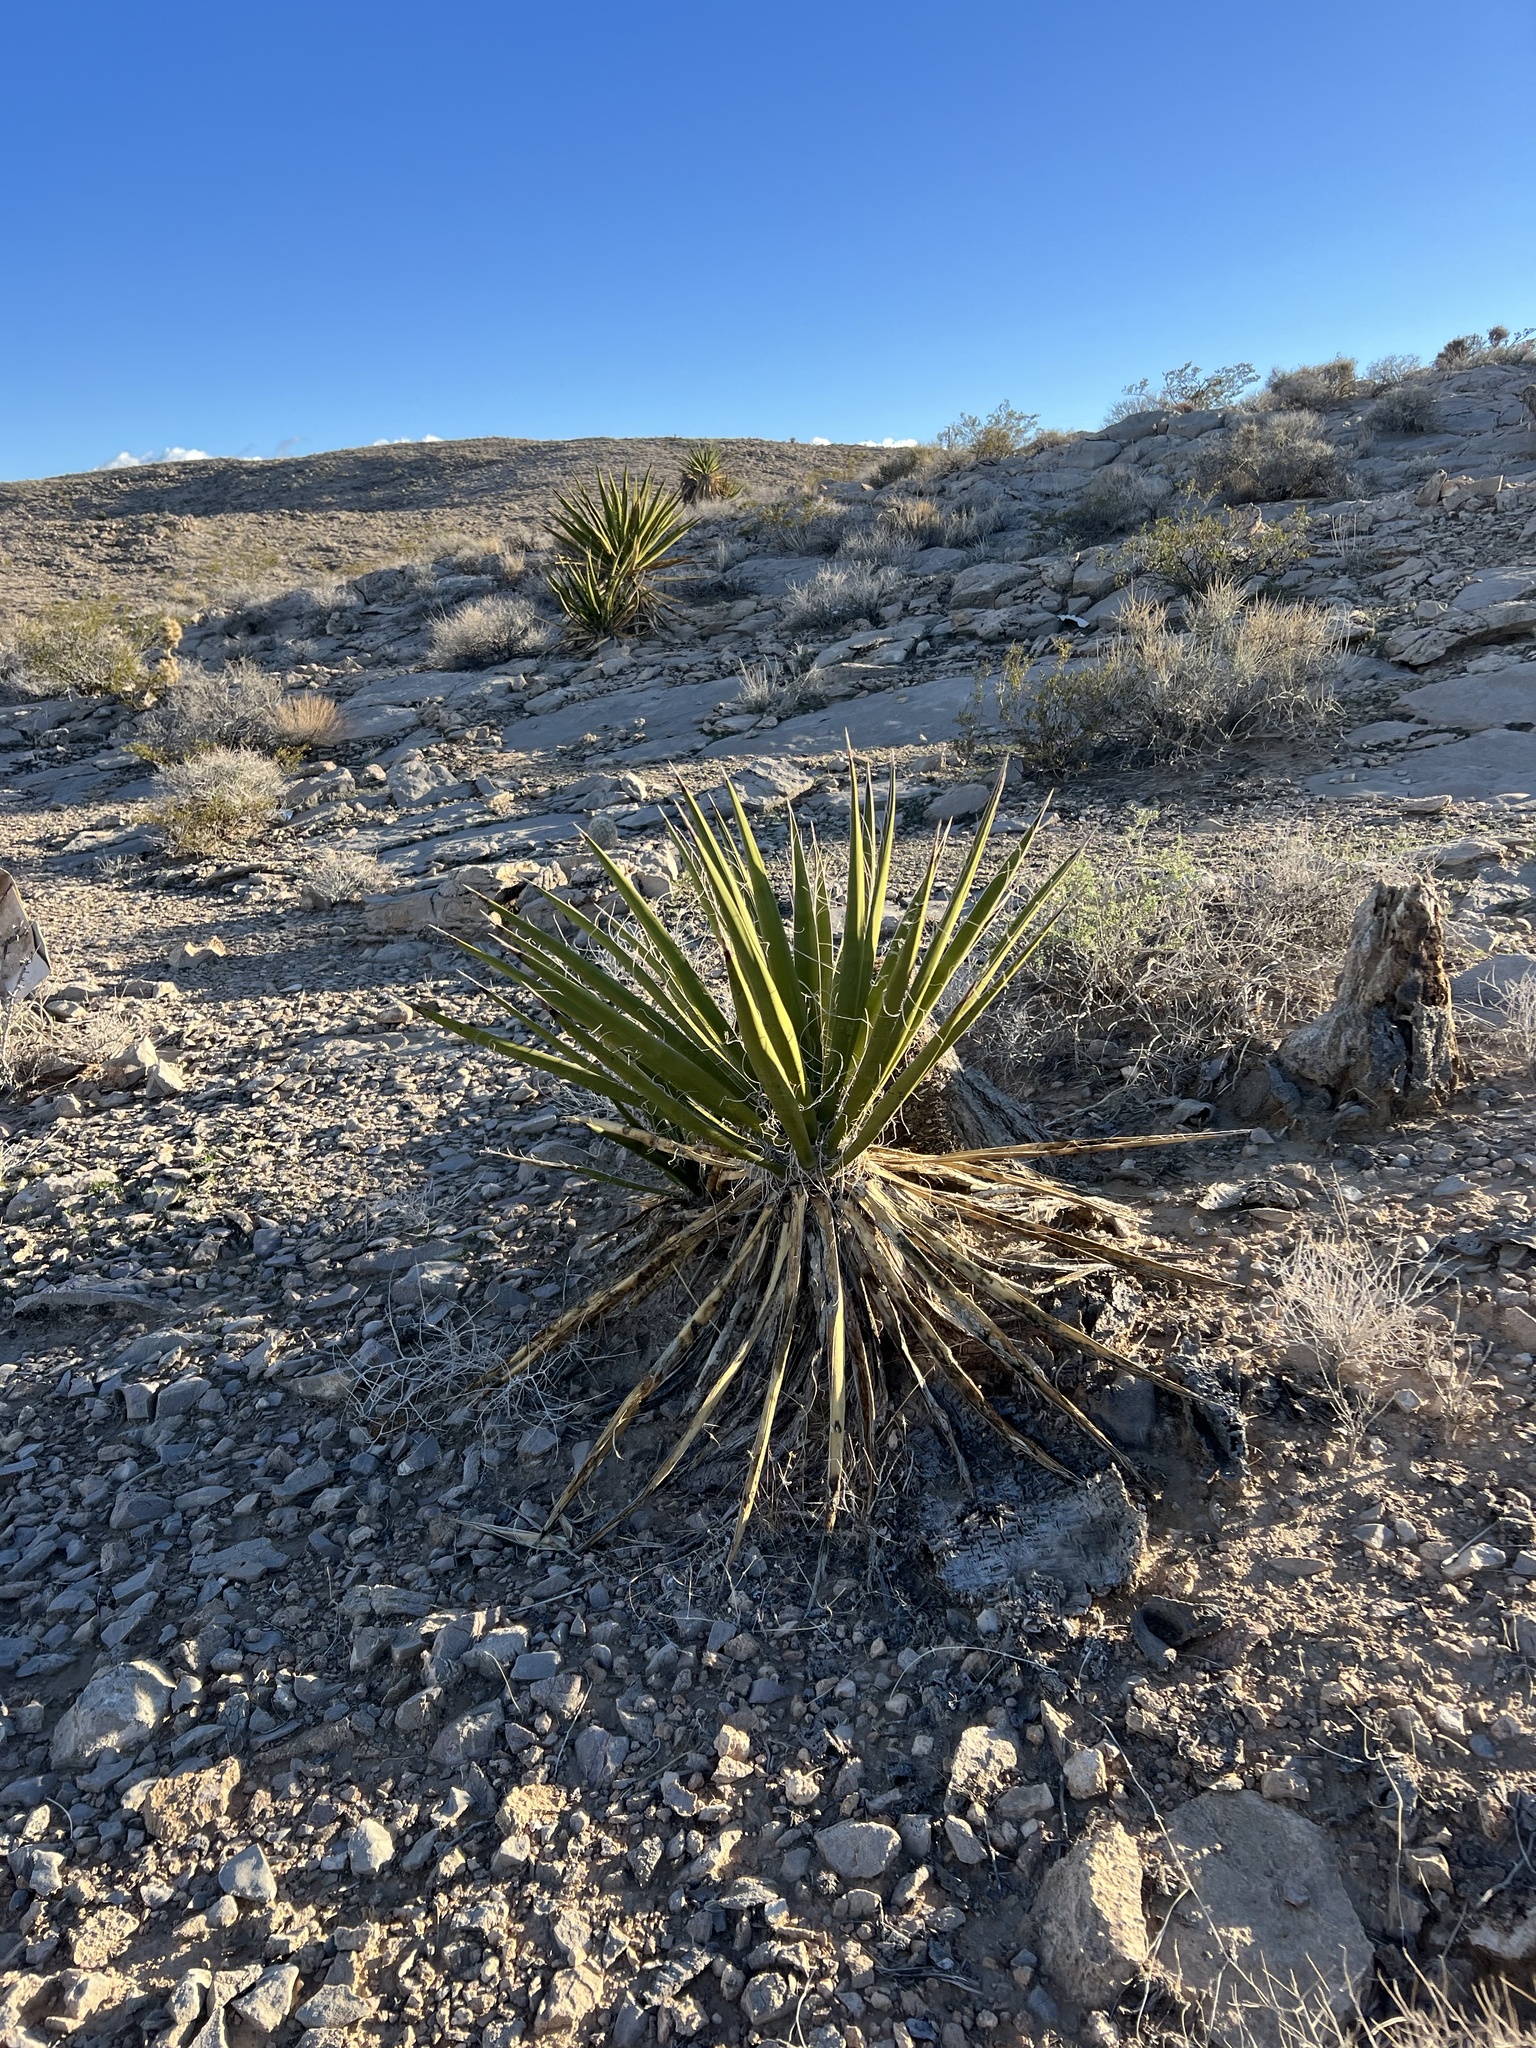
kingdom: Plantae
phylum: Tracheophyta
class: Liliopsida
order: Asparagales
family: Asparagaceae
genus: Yucca
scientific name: Yucca schidigera
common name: Mojave yucca
